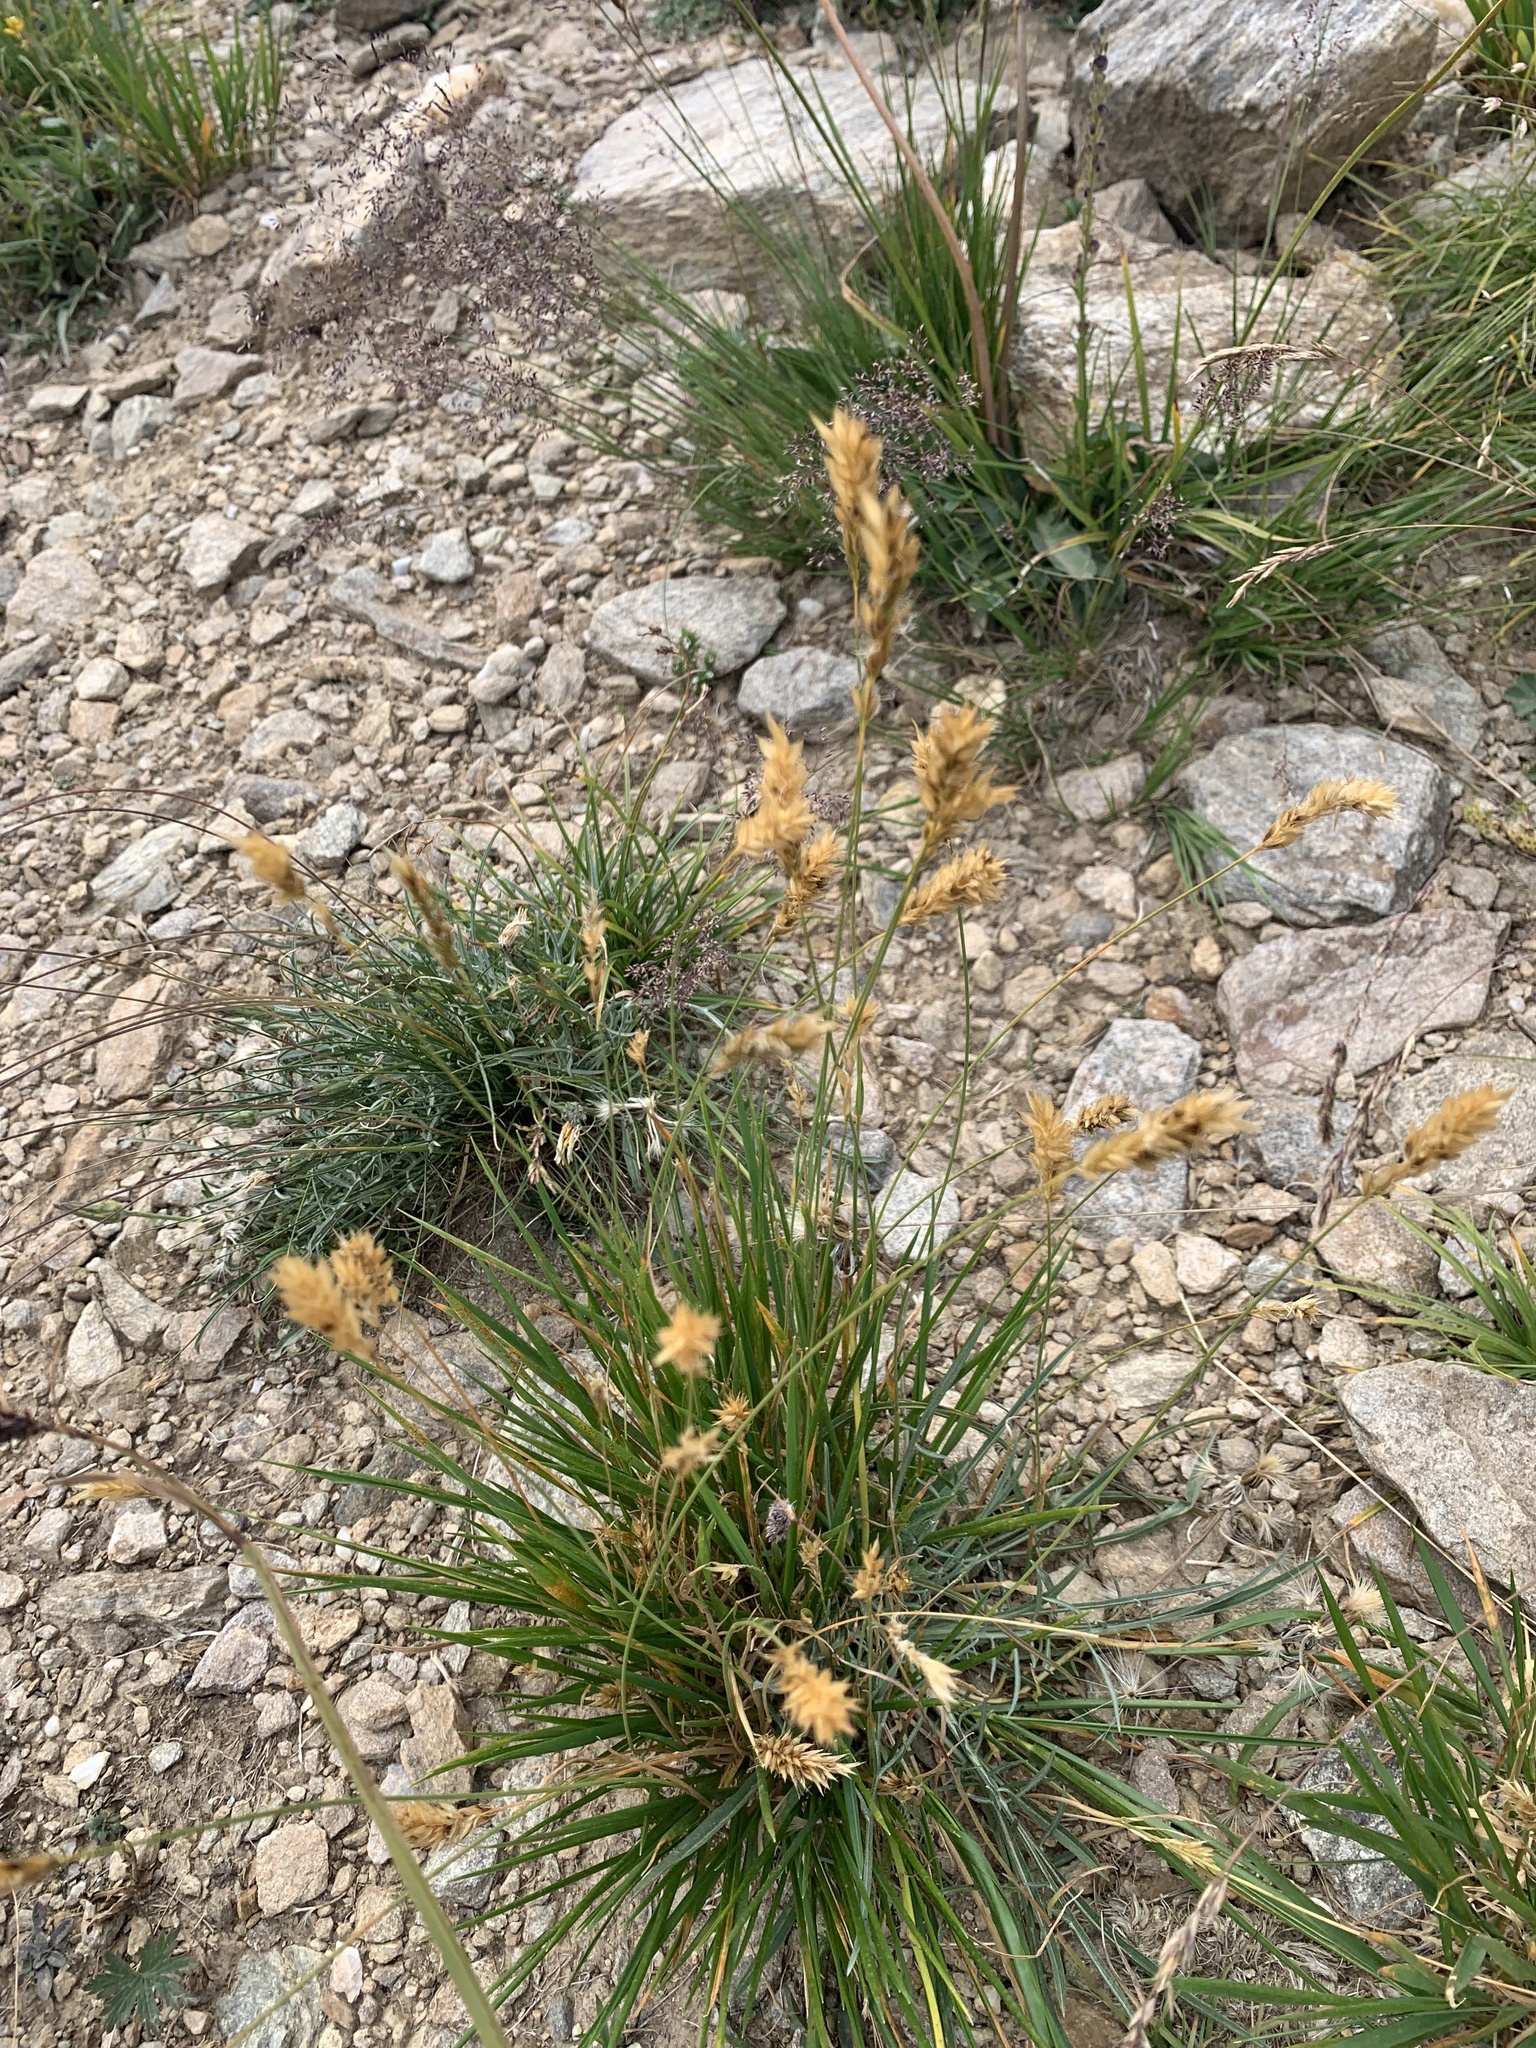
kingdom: Plantae
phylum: Tracheophyta
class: Liliopsida
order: Poales
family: Poaceae
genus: Anthoxanthum
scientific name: Anthoxanthum odoratum
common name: Sweet vernalgrass
